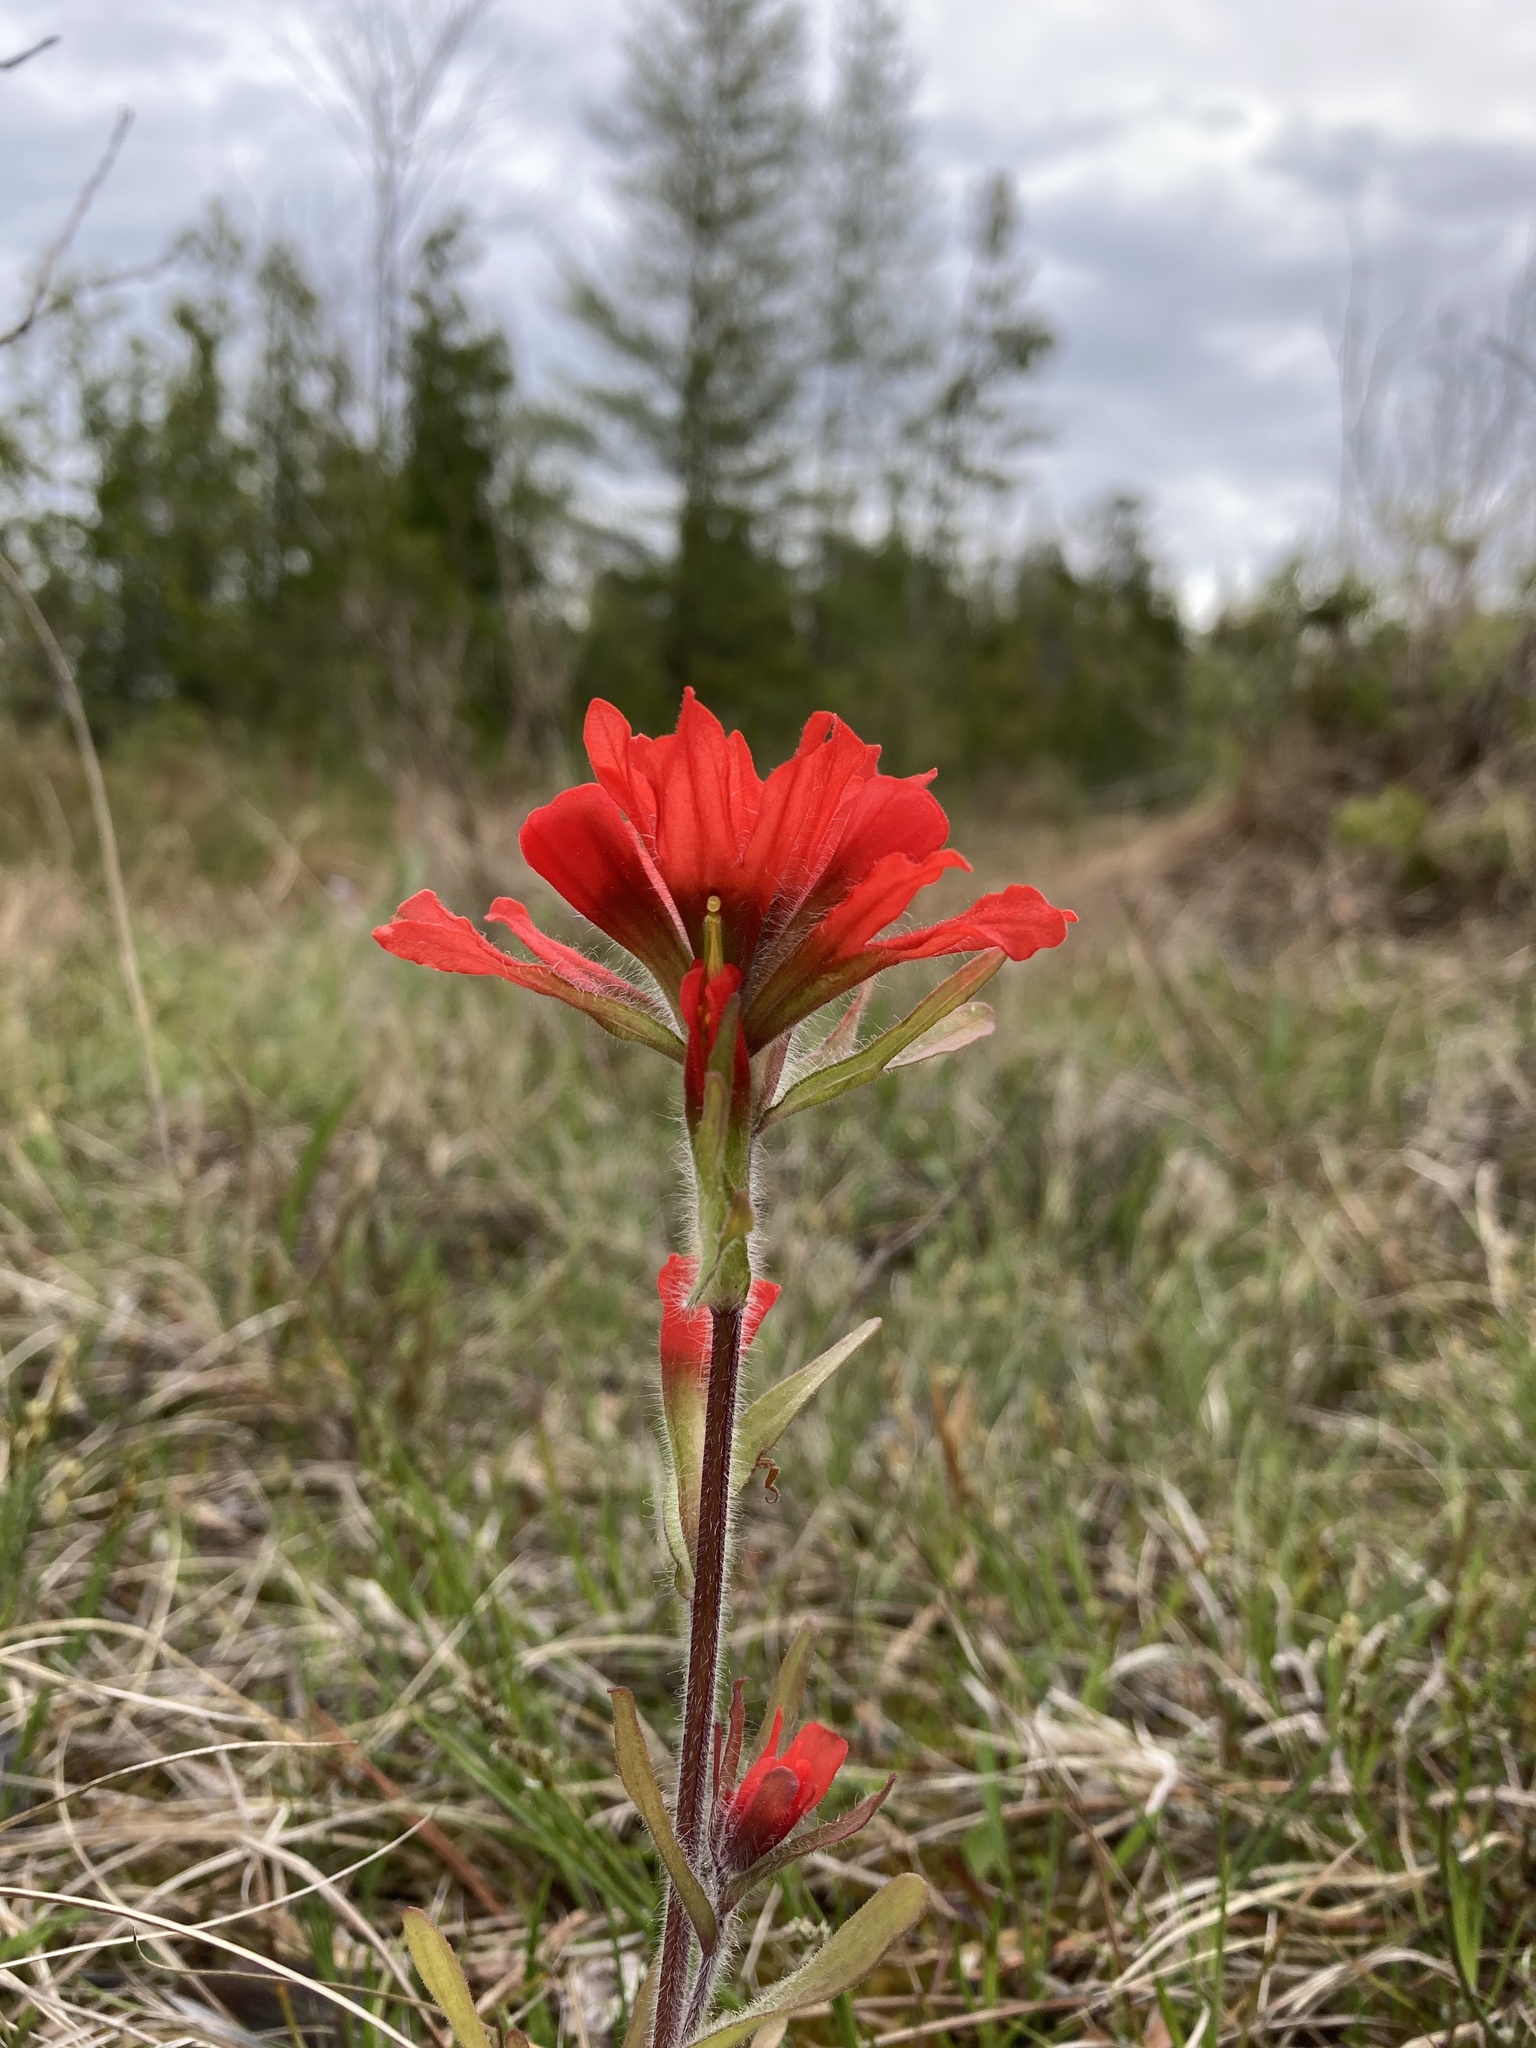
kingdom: Plantae
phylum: Tracheophyta
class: Magnoliopsida
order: Lamiales
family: Orobanchaceae
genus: Castilleja
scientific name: Castilleja coccinea
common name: Scarlet paintbrush
